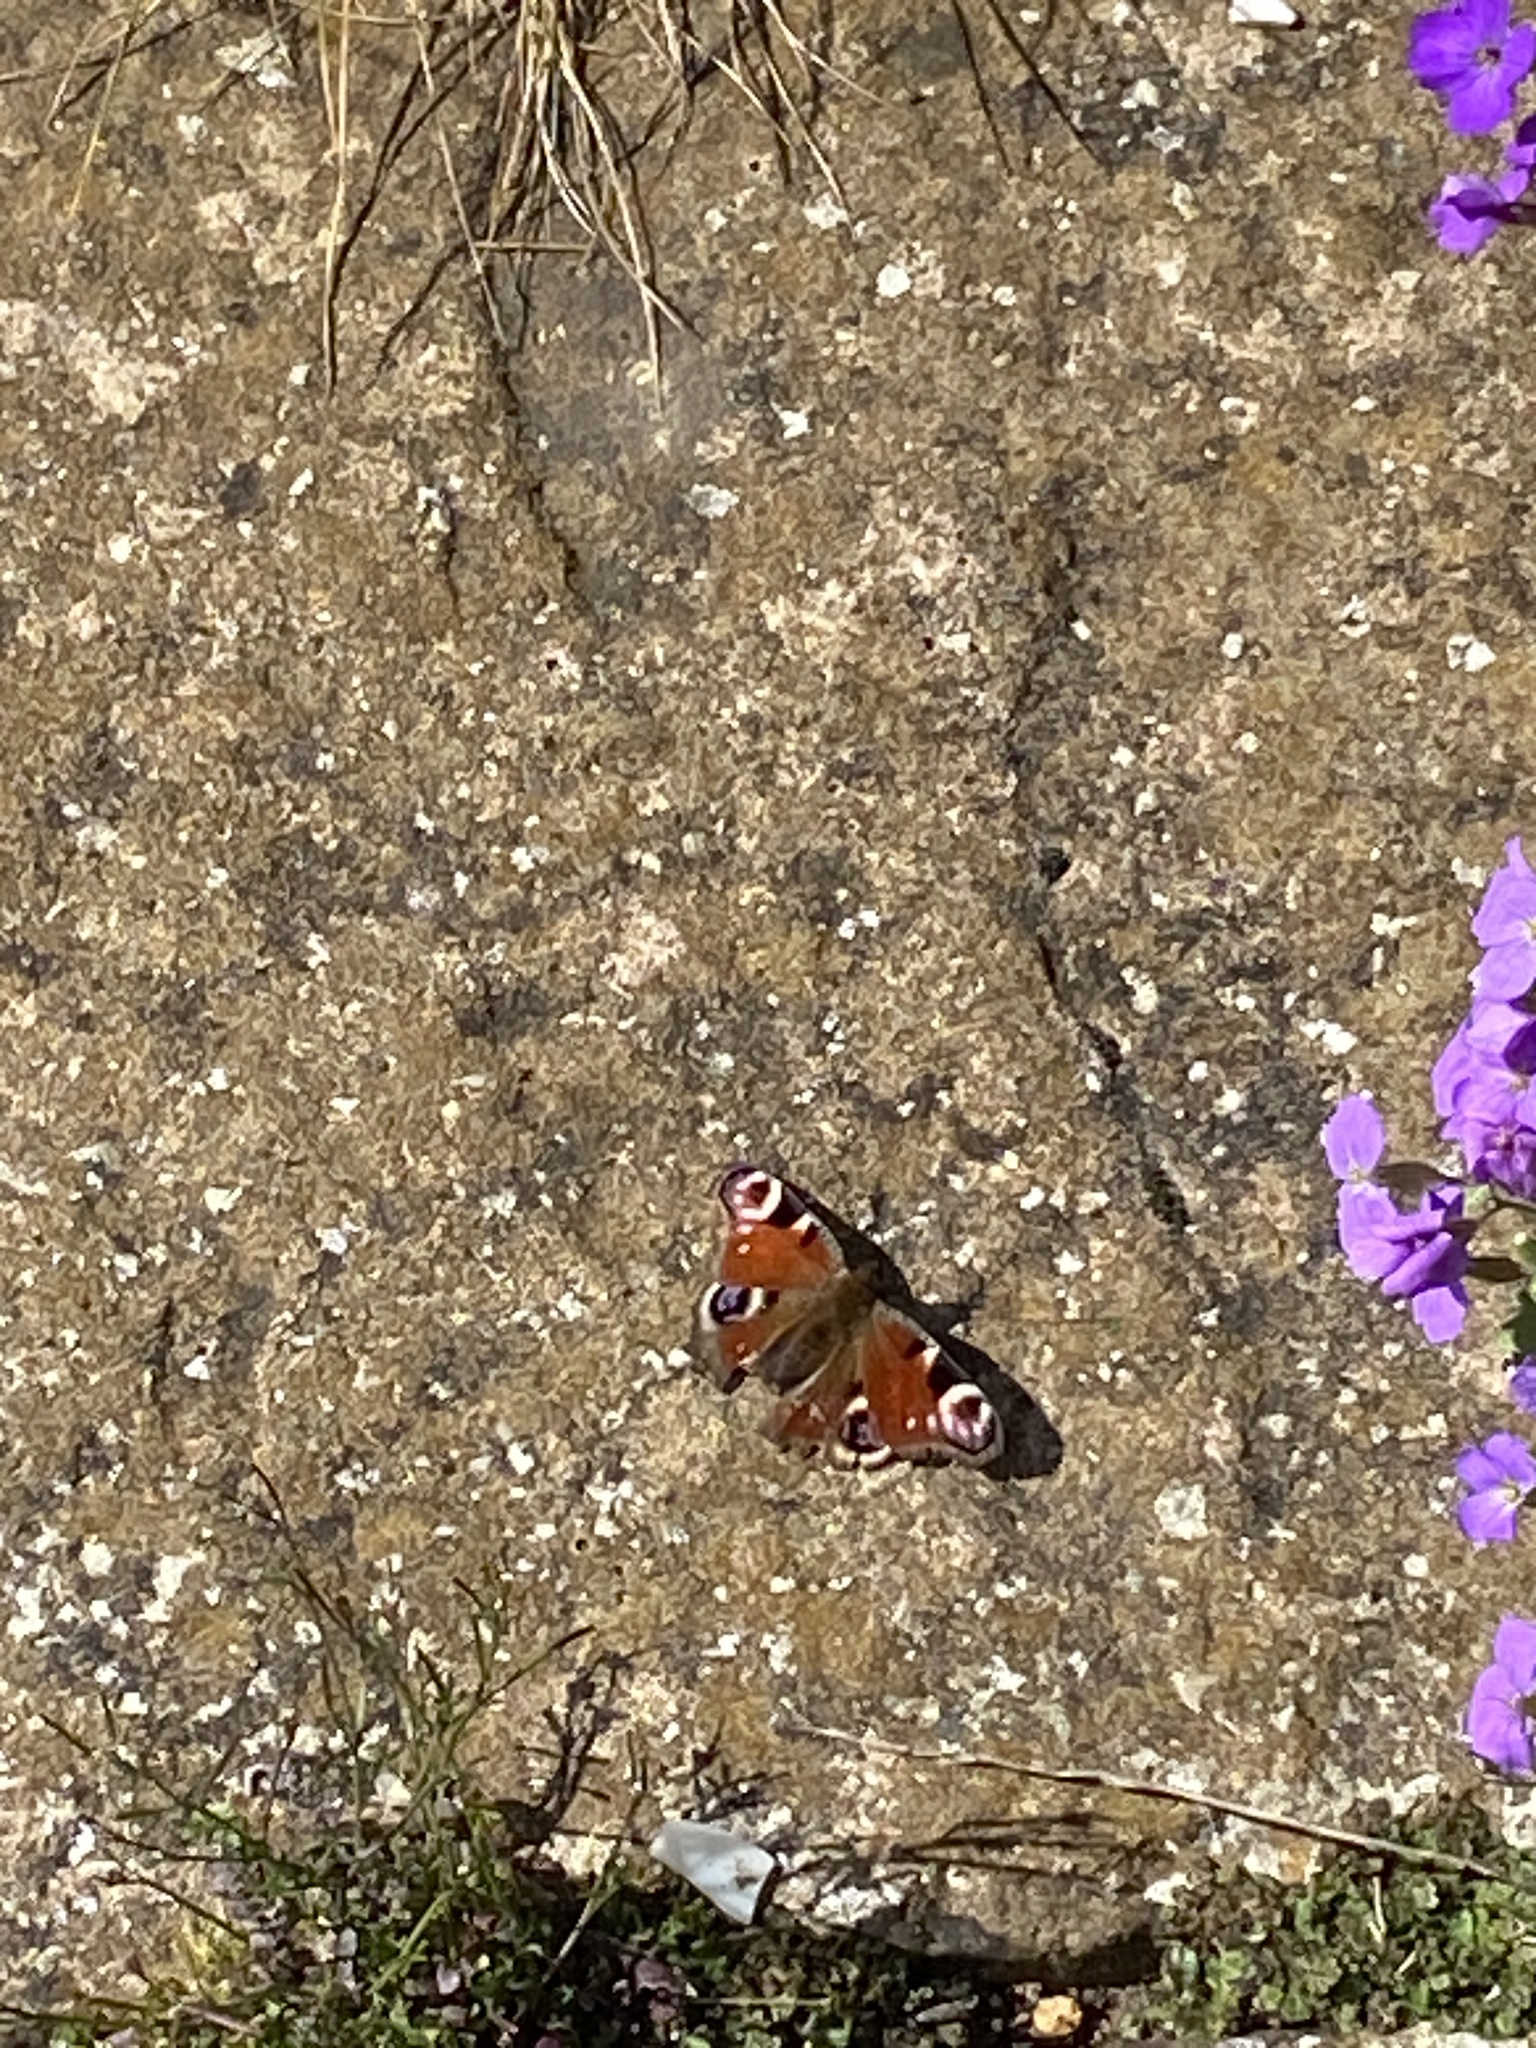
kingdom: Animalia
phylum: Arthropoda
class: Insecta
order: Lepidoptera
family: Nymphalidae
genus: Aglais
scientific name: Aglais io
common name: Peacock
